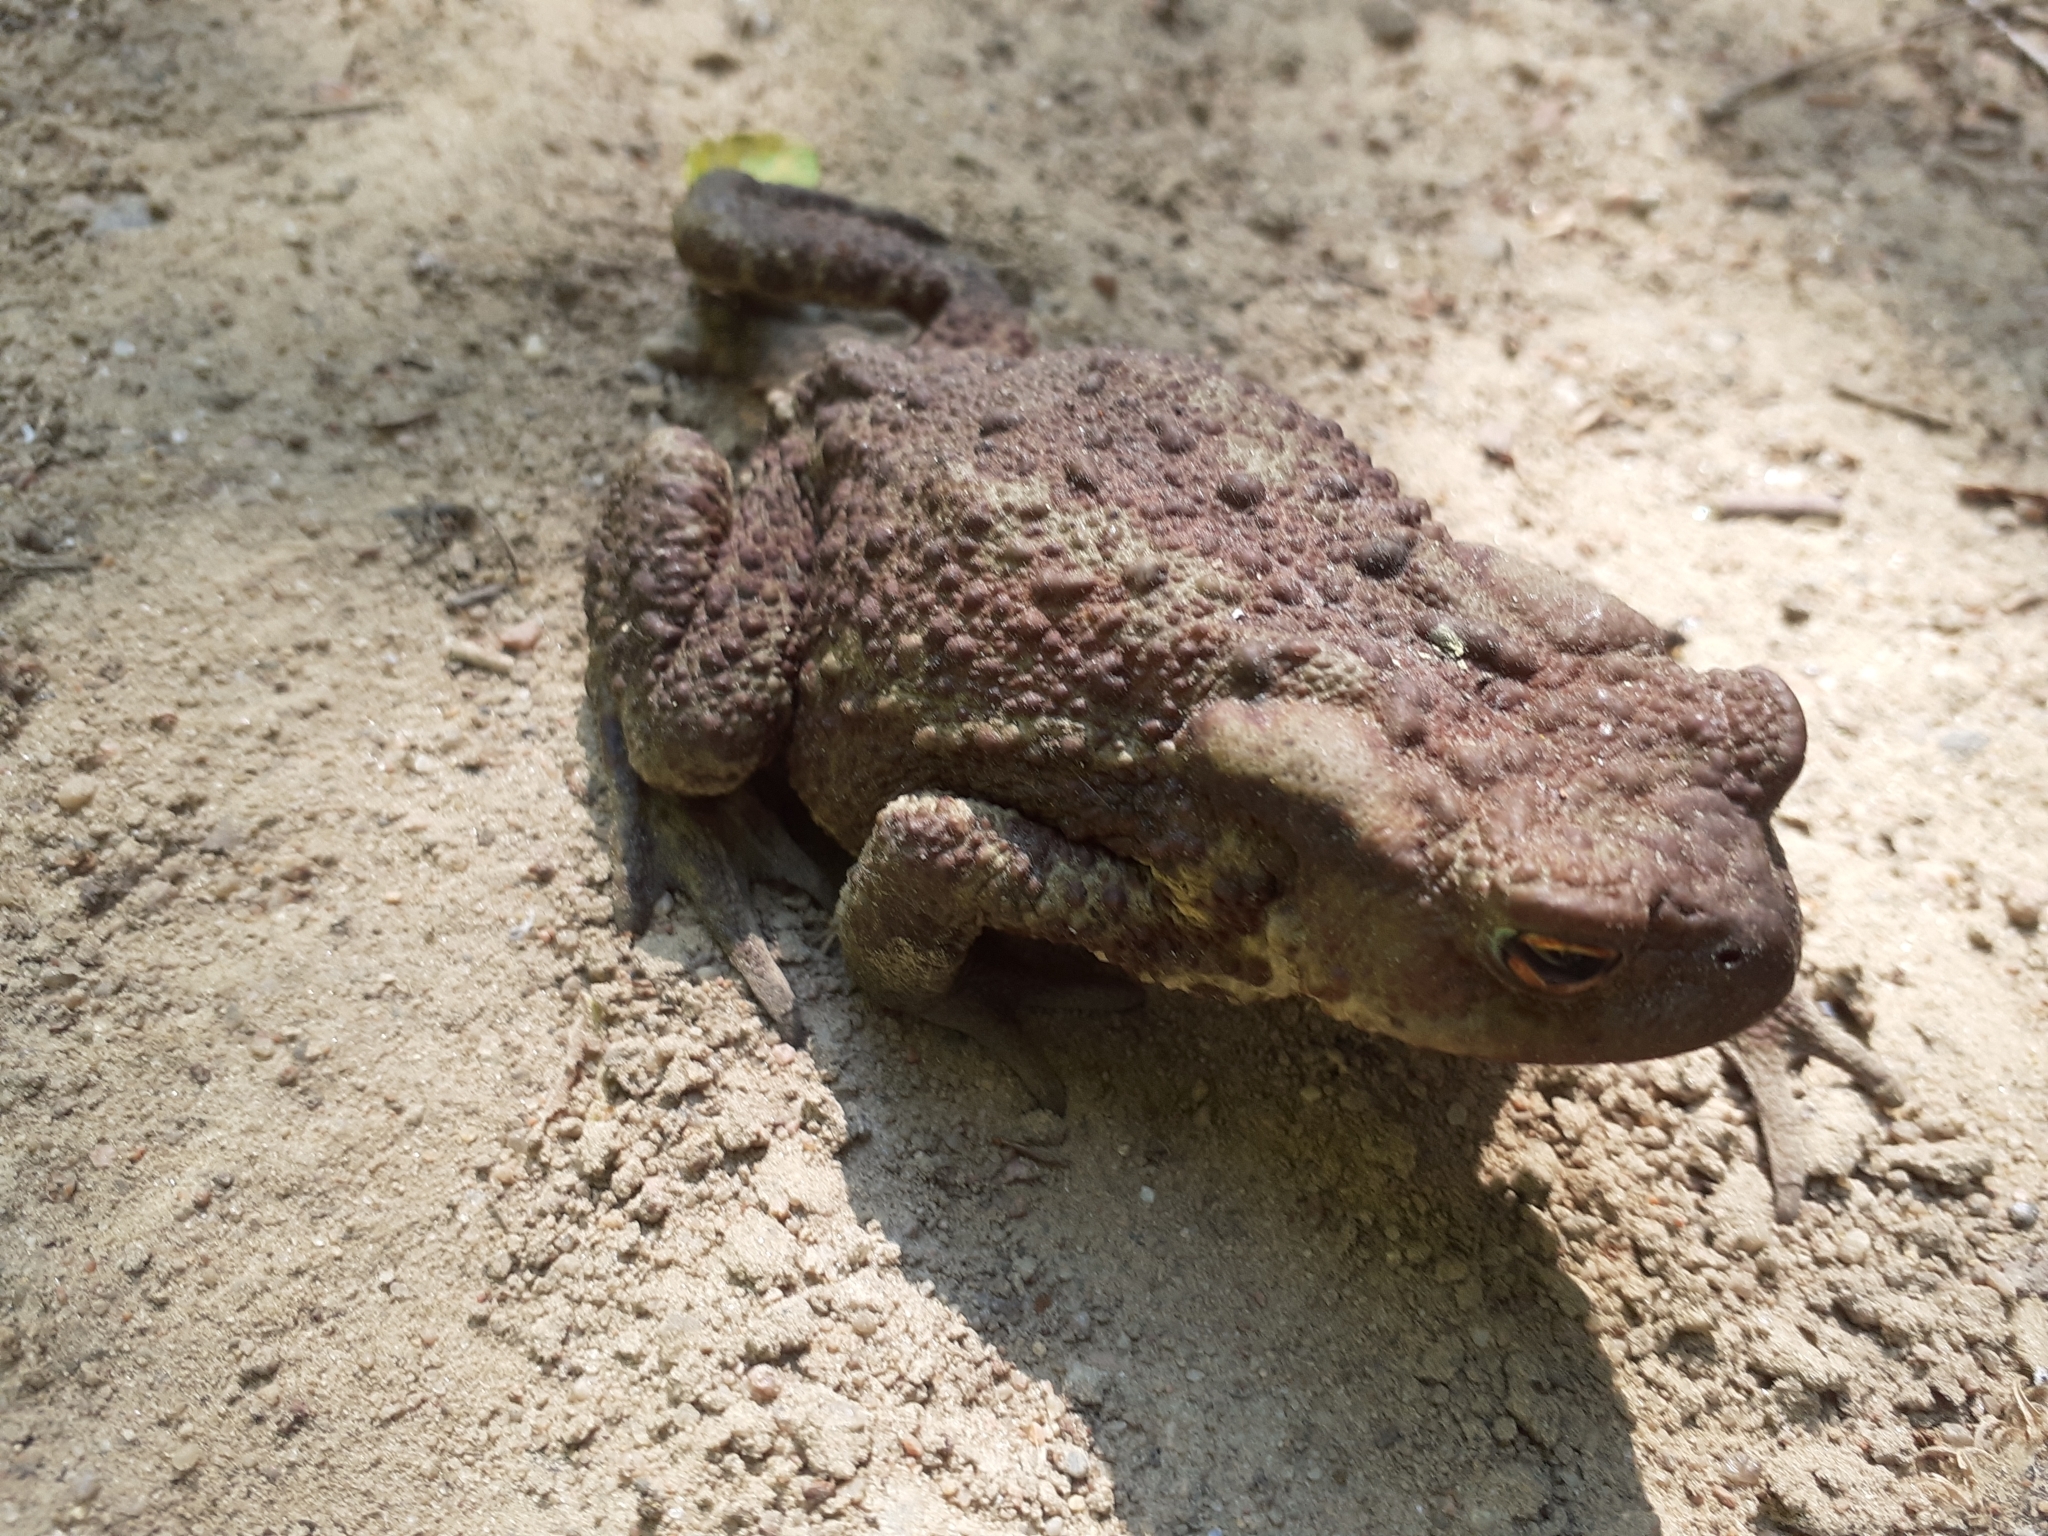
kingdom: Animalia
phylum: Chordata
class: Amphibia
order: Anura
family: Bufonidae
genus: Bufo
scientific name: Bufo bufo
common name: Common toad
